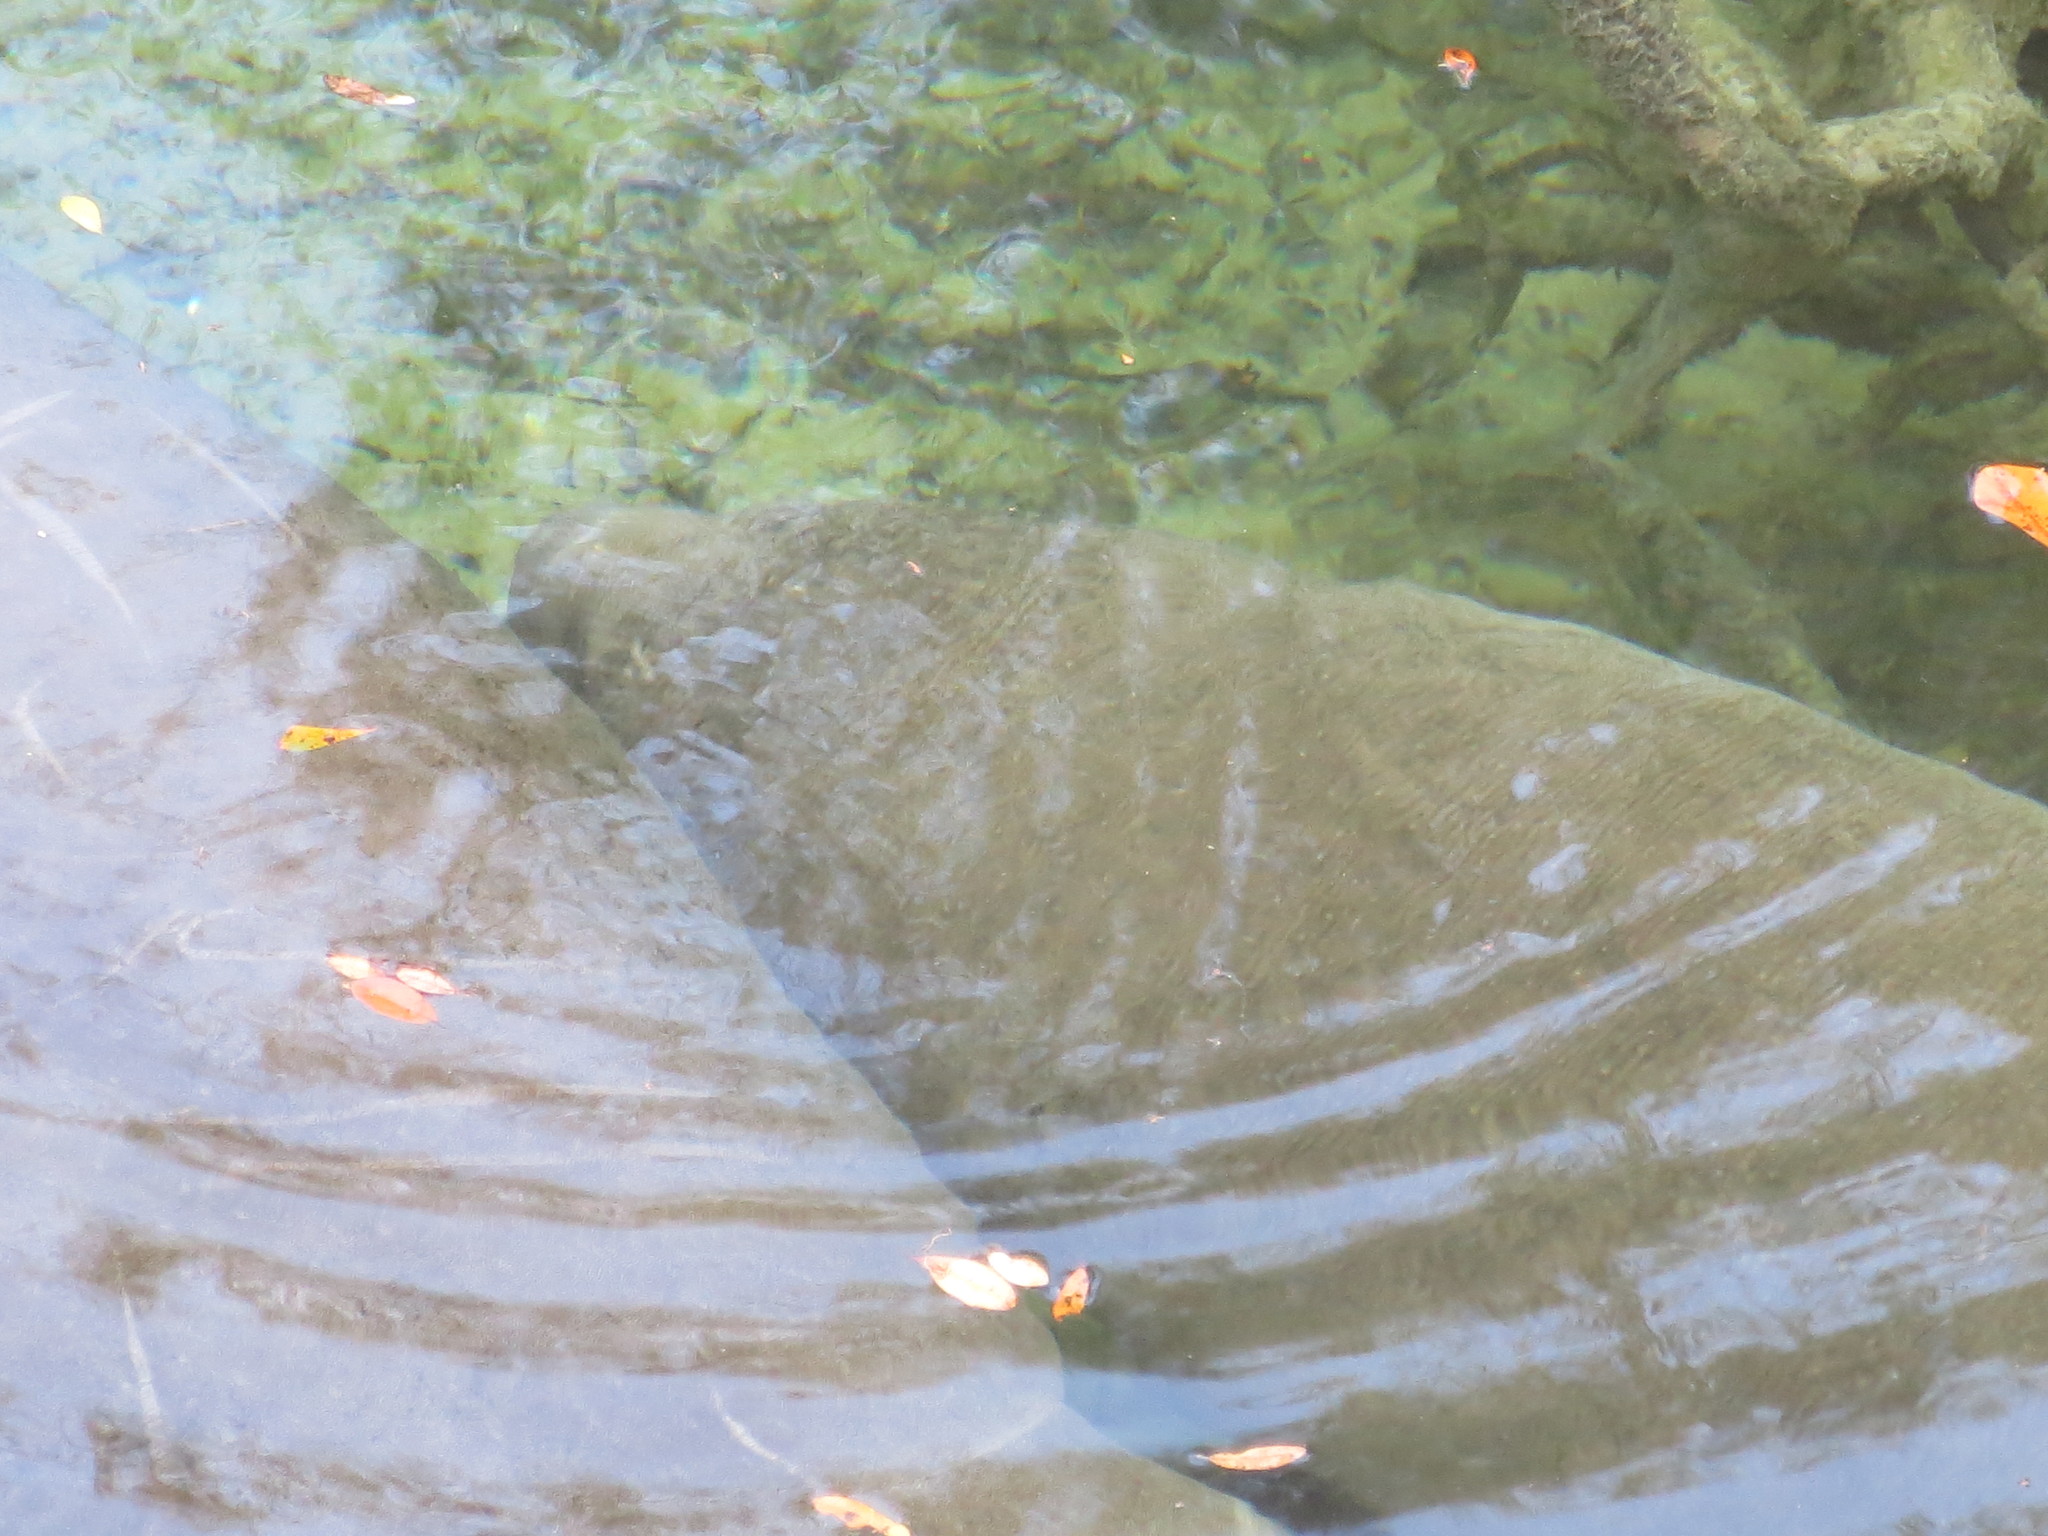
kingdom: Animalia
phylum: Chordata
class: Mammalia
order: Sirenia
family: Trichechidae
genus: Trichechus
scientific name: Trichechus manatus
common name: West indian manatee
